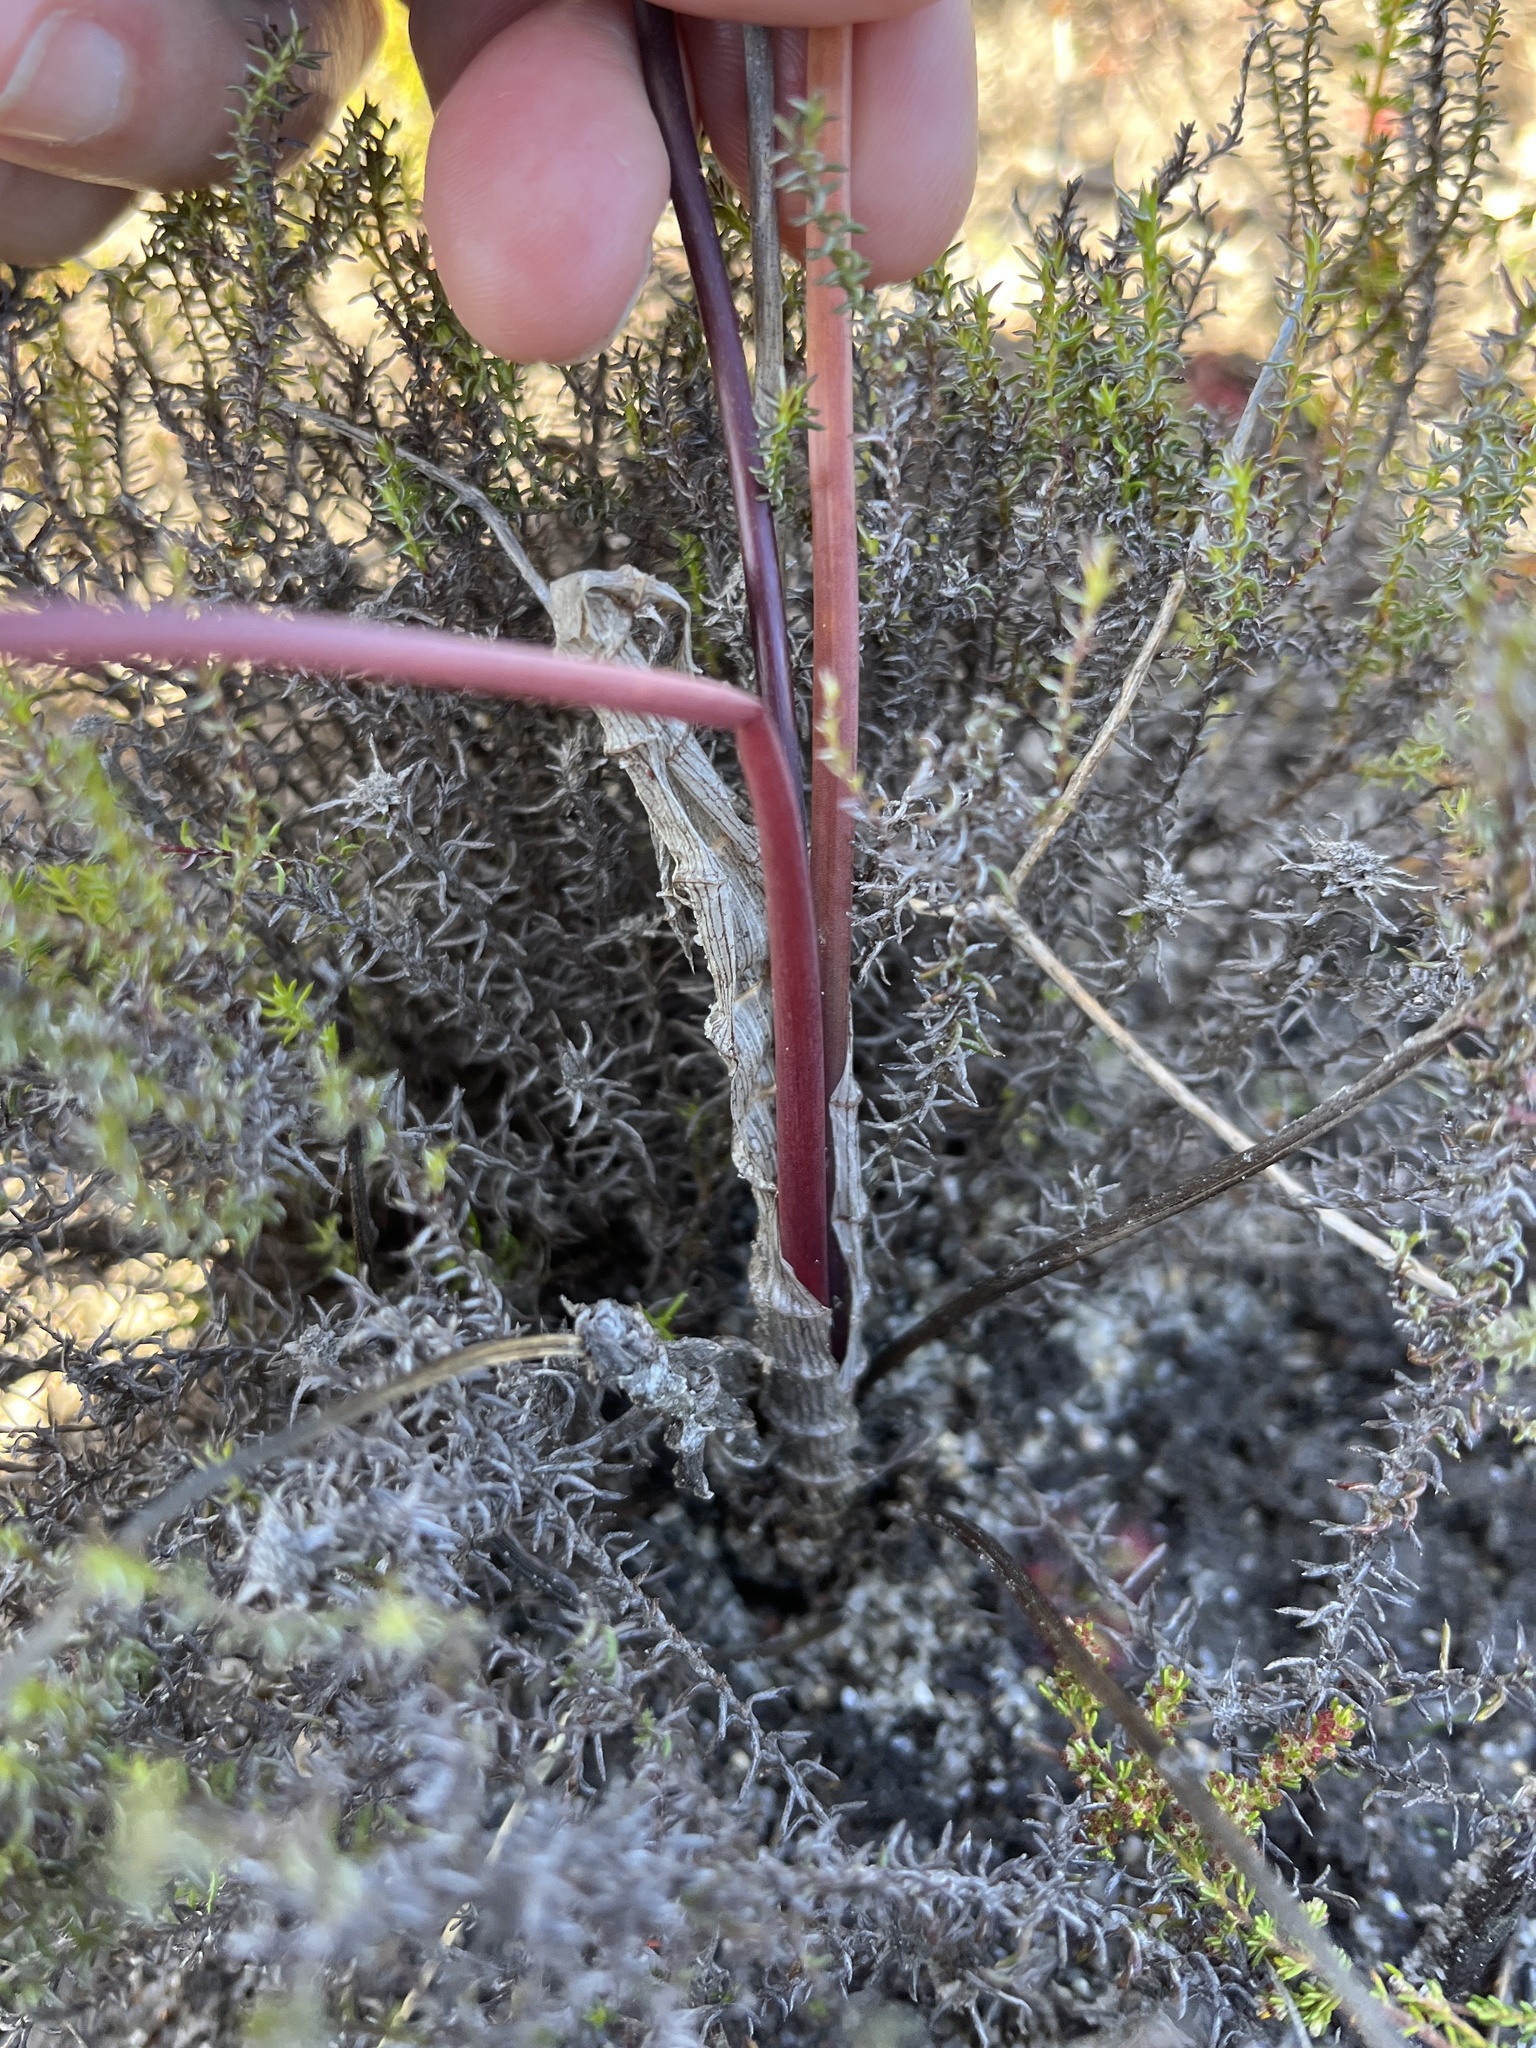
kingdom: Plantae
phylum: Tracheophyta
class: Liliopsida
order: Asparagales
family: Asparagaceae
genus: Drimia
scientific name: Drimia exuviata
